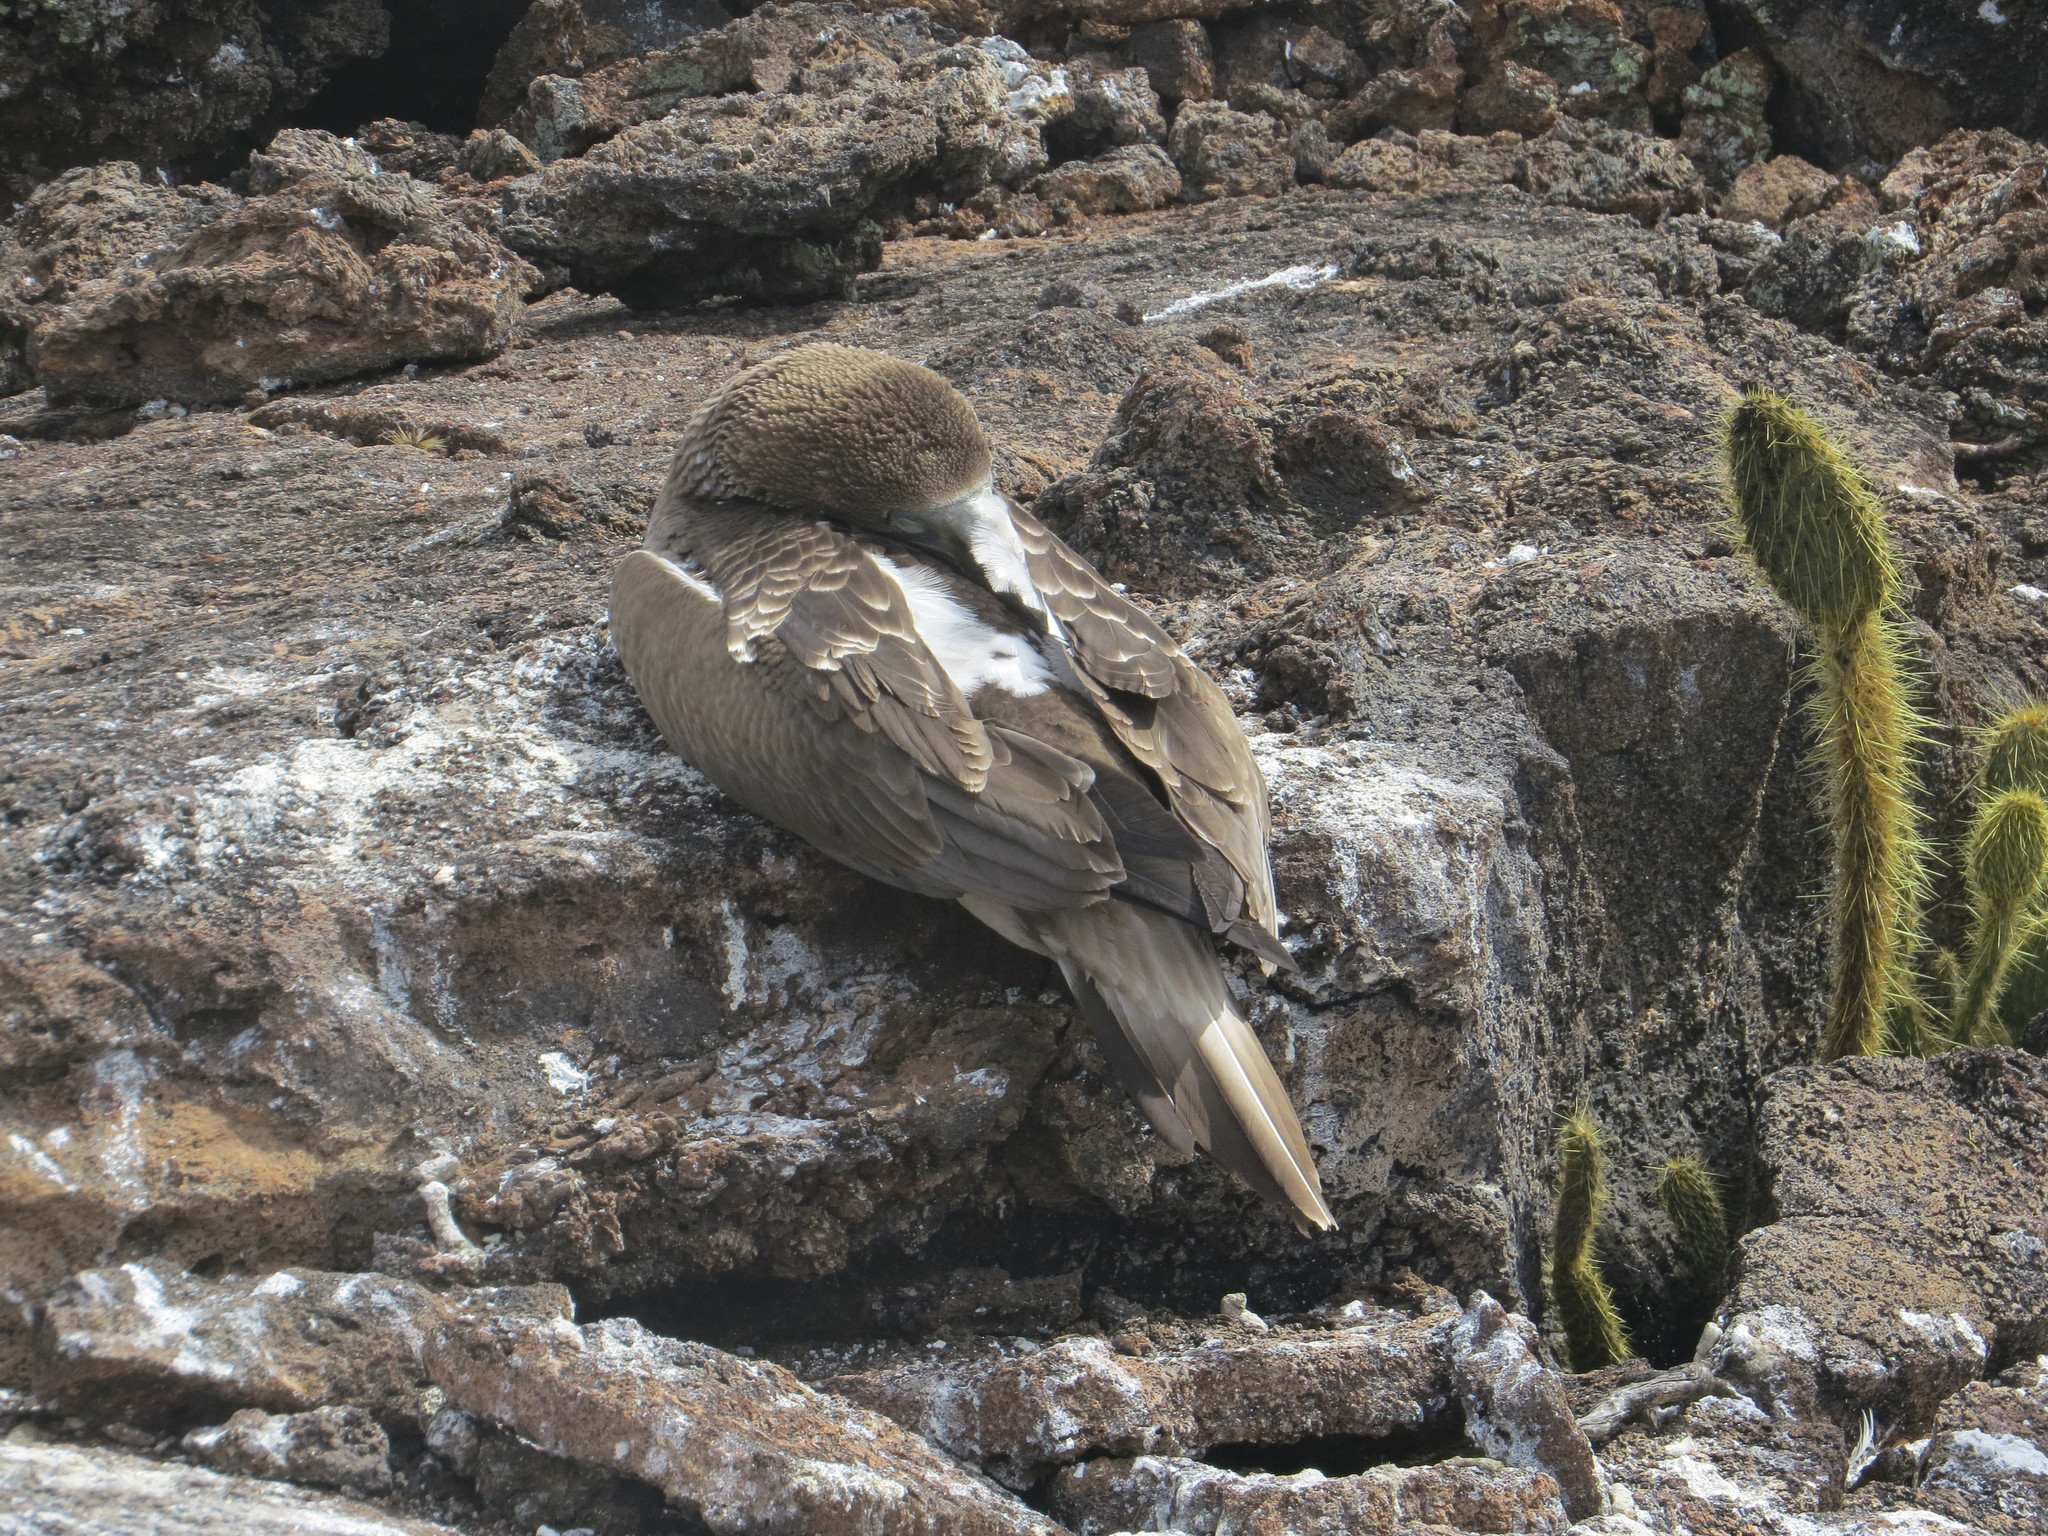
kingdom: Animalia
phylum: Chordata
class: Aves
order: Suliformes
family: Sulidae
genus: Sula
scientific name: Sula nebouxii
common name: Blue-footed booby
